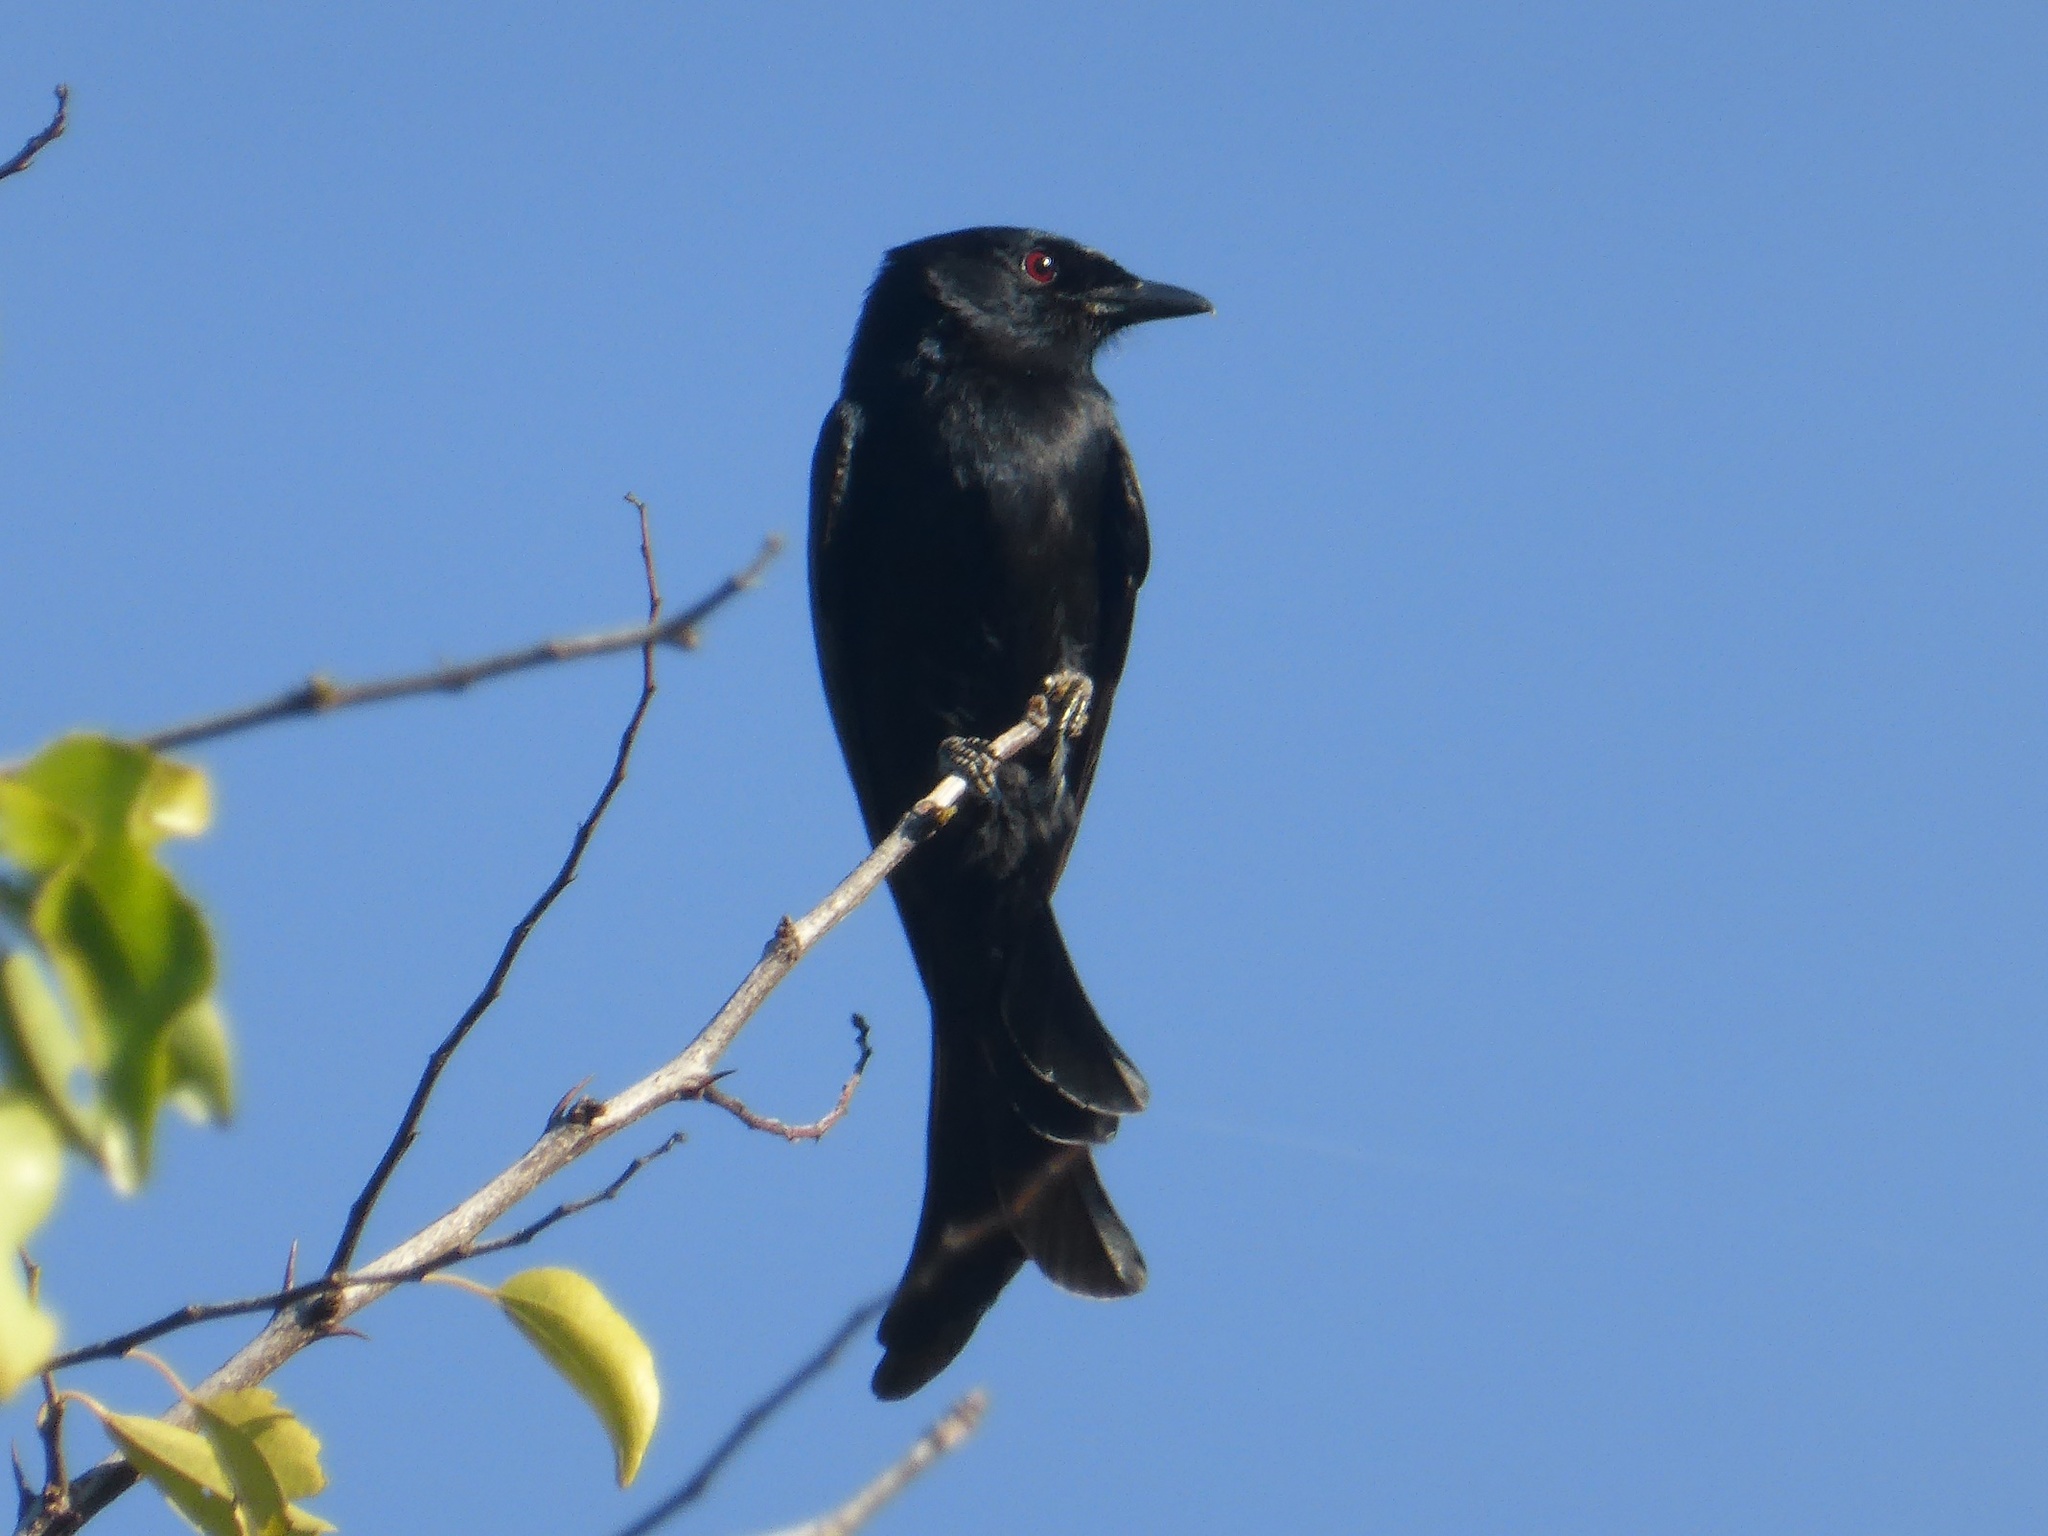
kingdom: Animalia
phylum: Chordata
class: Aves
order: Passeriformes
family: Dicruridae
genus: Dicrurus
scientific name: Dicrurus adsimilis
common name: Fork-tailed drongo
